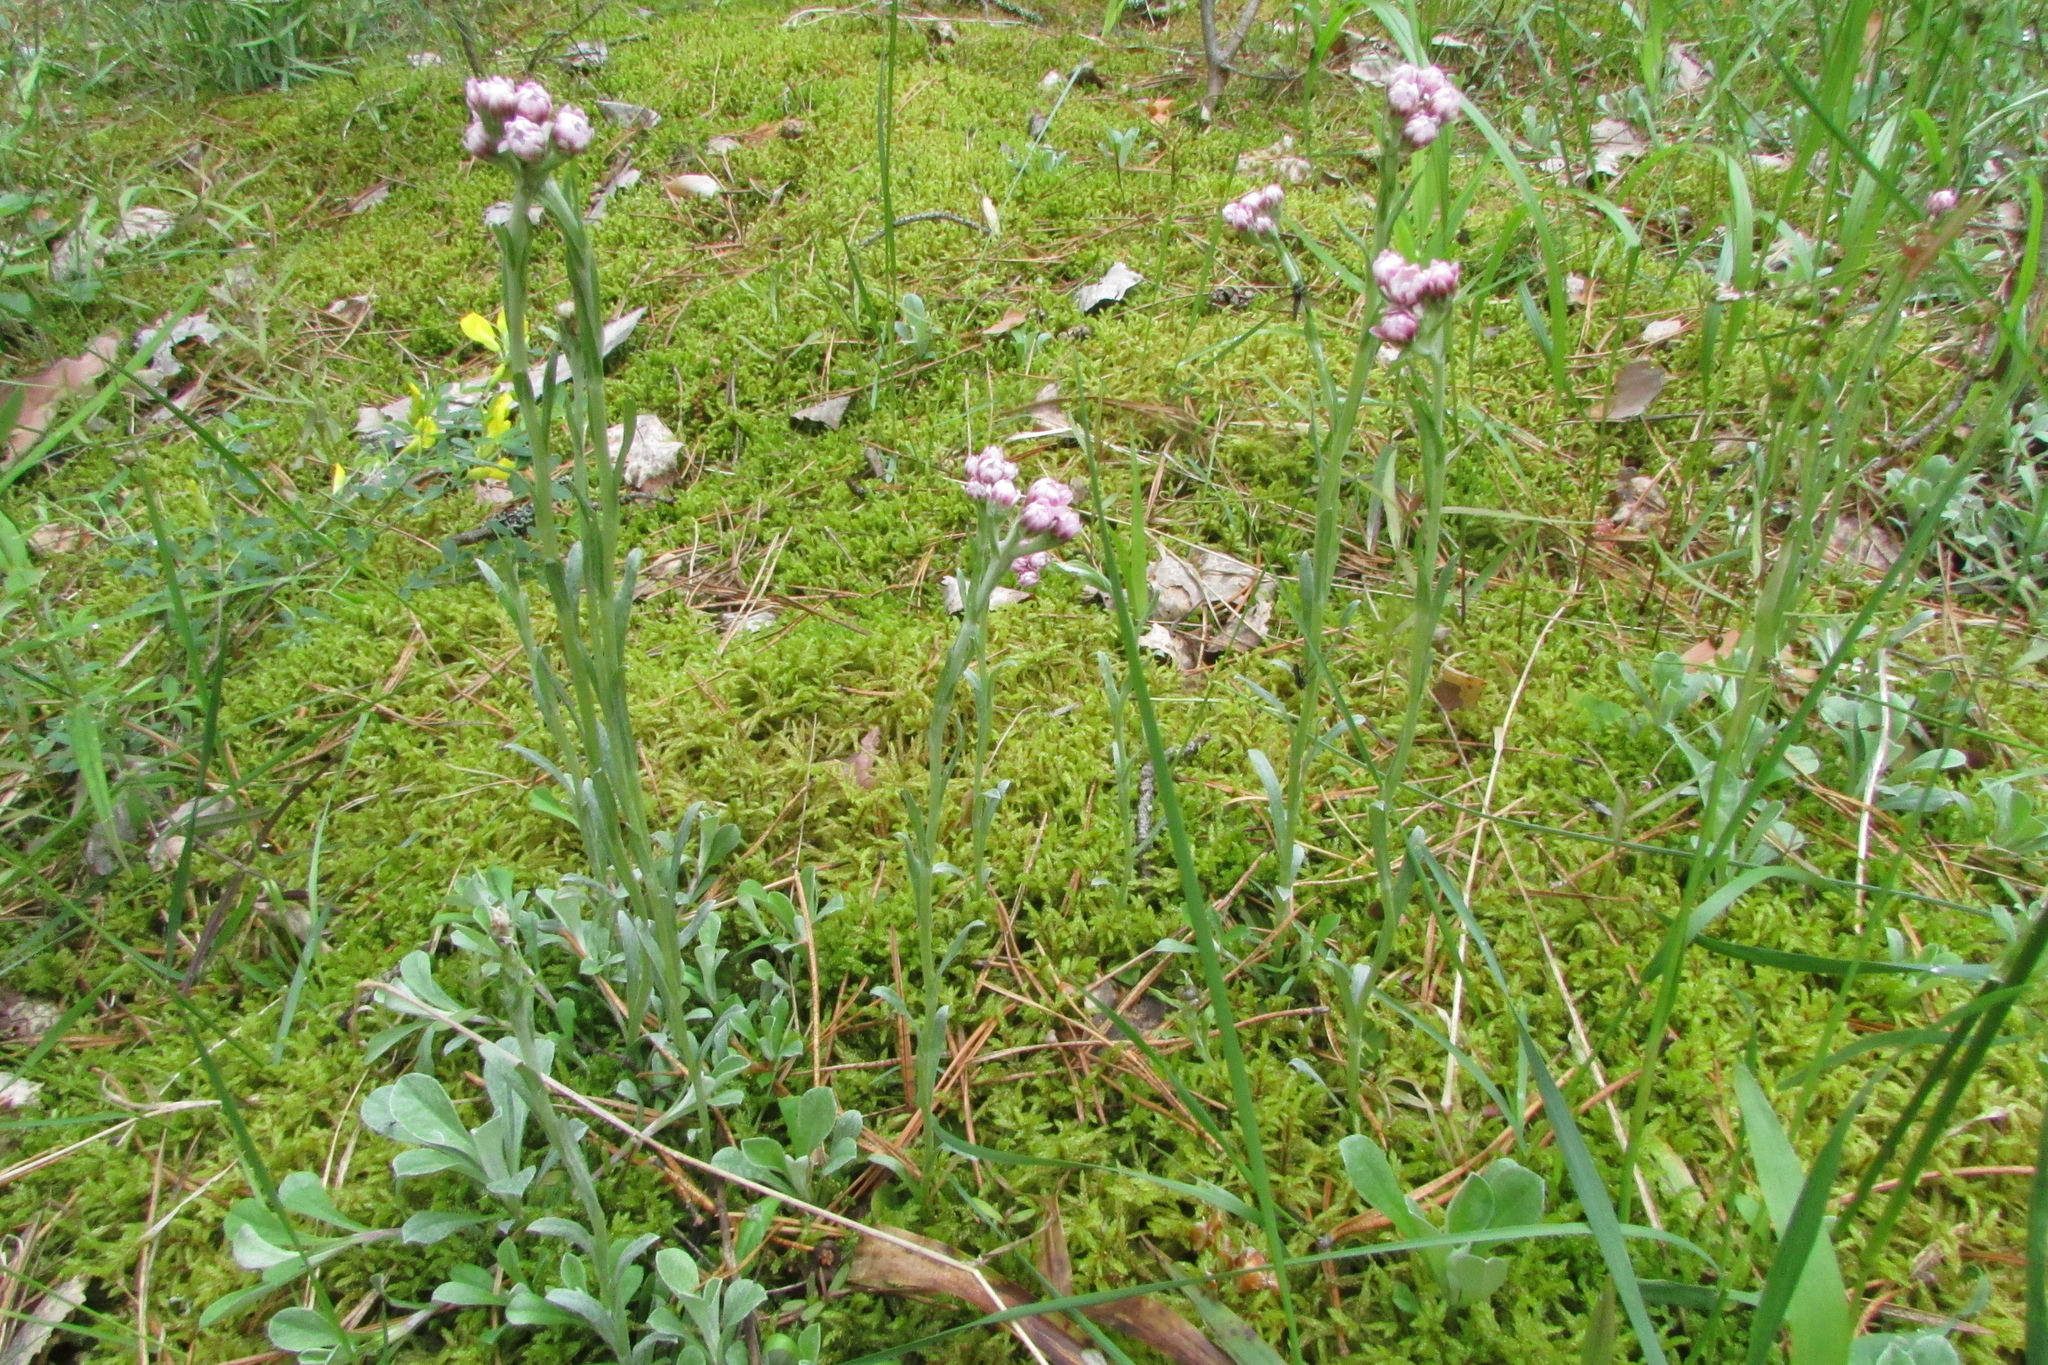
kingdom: Plantae
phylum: Tracheophyta
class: Magnoliopsida
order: Asterales
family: Asteraceae
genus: Antennaria
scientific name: Antennaria dioica
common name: Mountain everlasting
